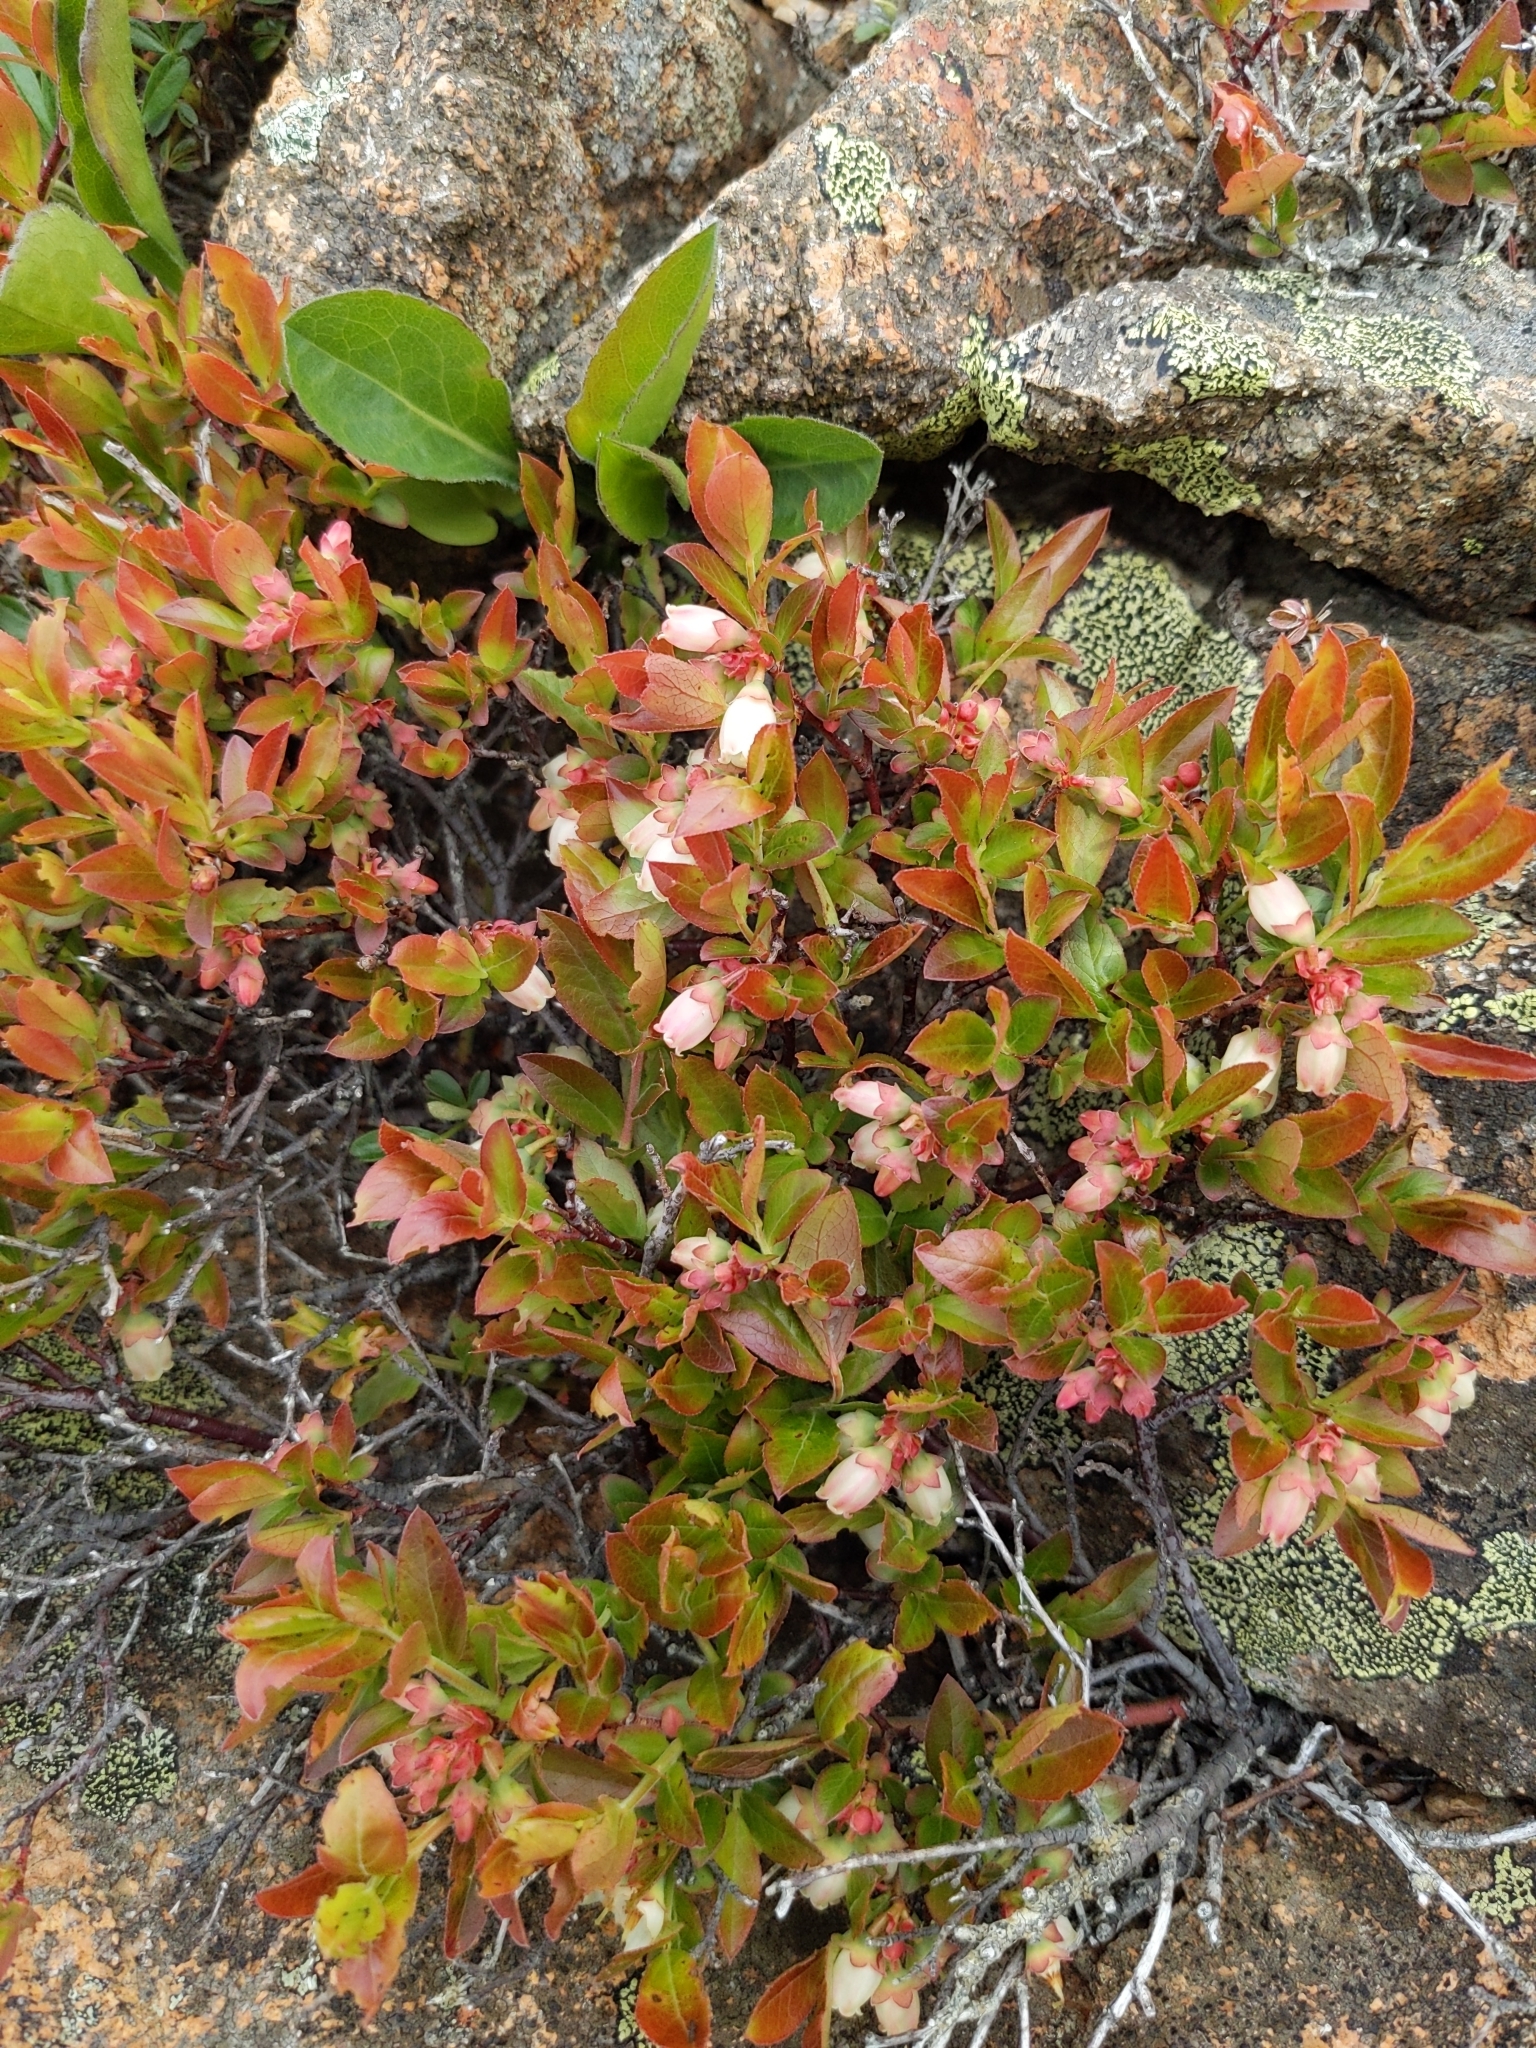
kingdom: Plantae
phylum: Tracheophyta
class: Magnoliopsida
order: Ericales
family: Ericaceae
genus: Vaccinium
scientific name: Vaccinium angustifolium
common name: Early lowbush blueberry
